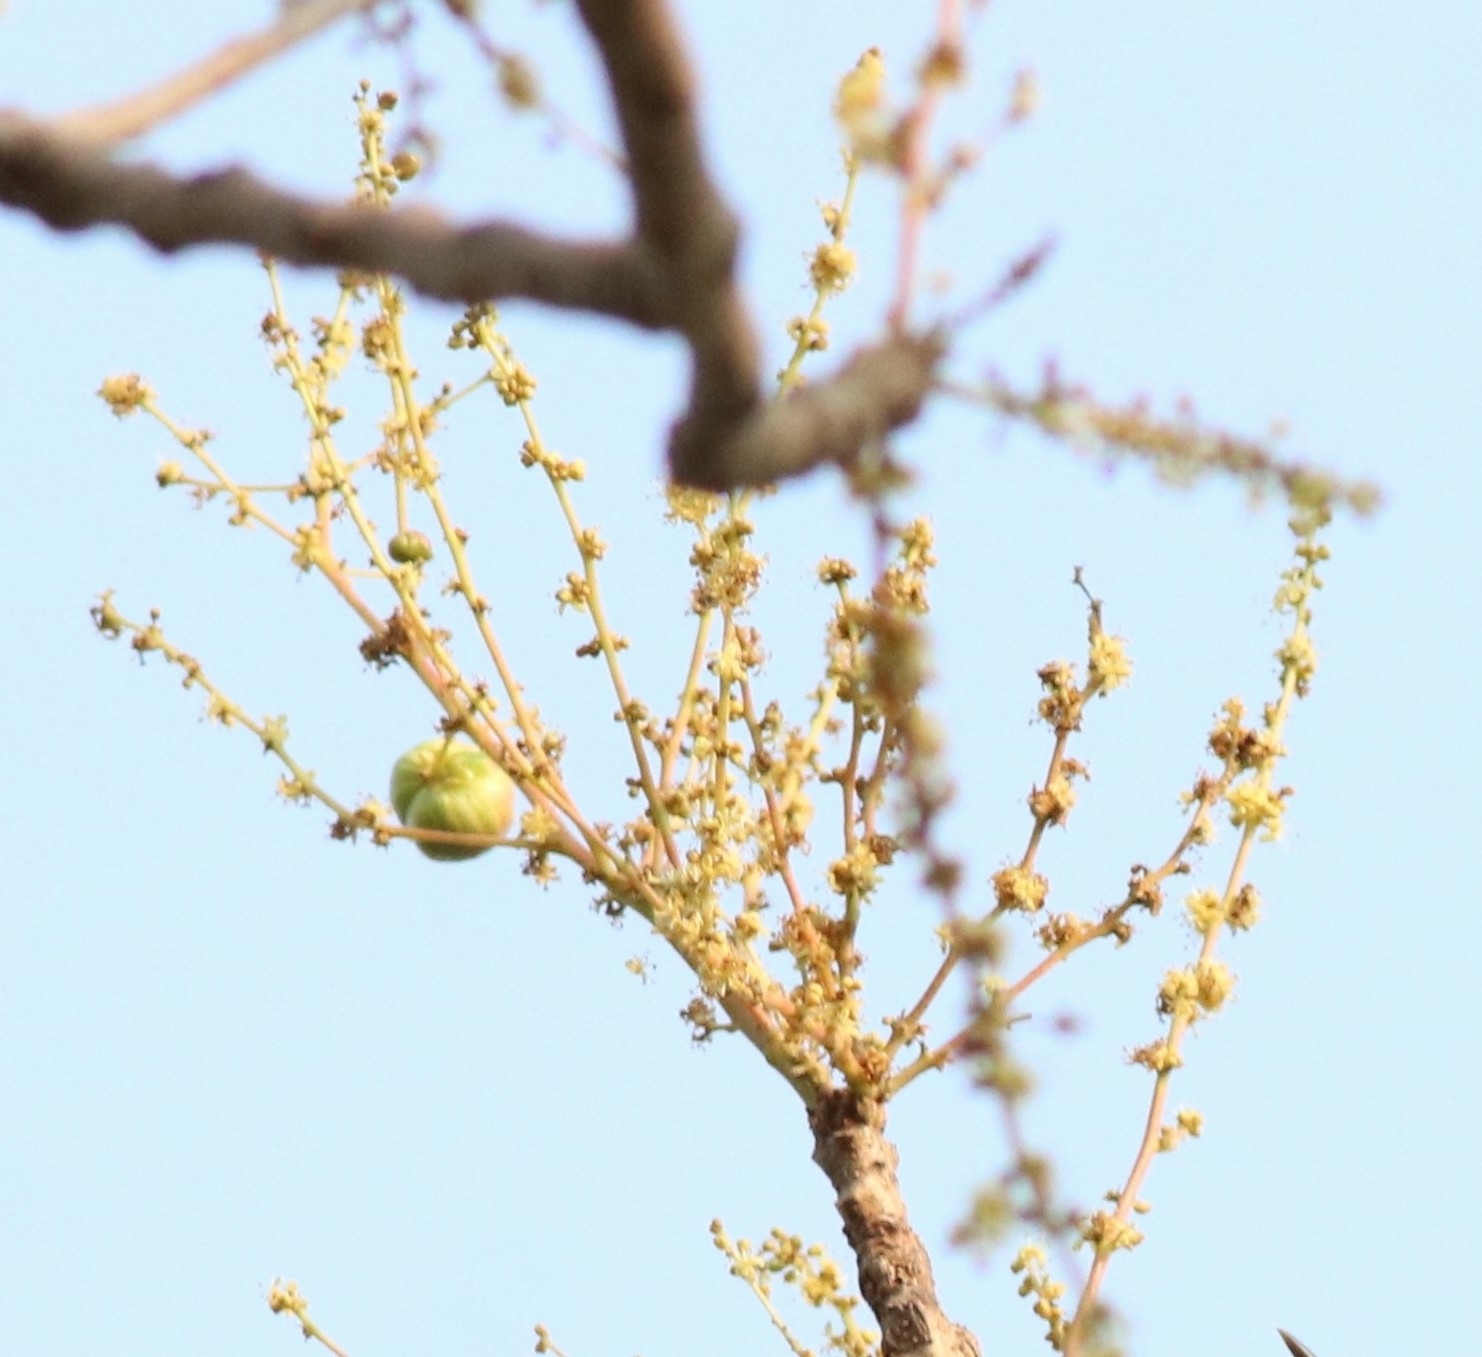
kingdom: Plantae
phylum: Tracheophyta
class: Magnoliopsida
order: Sapindales
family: Anacardiaceae
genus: Lannea
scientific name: Lannea coromandelica
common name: Indian ash tree
